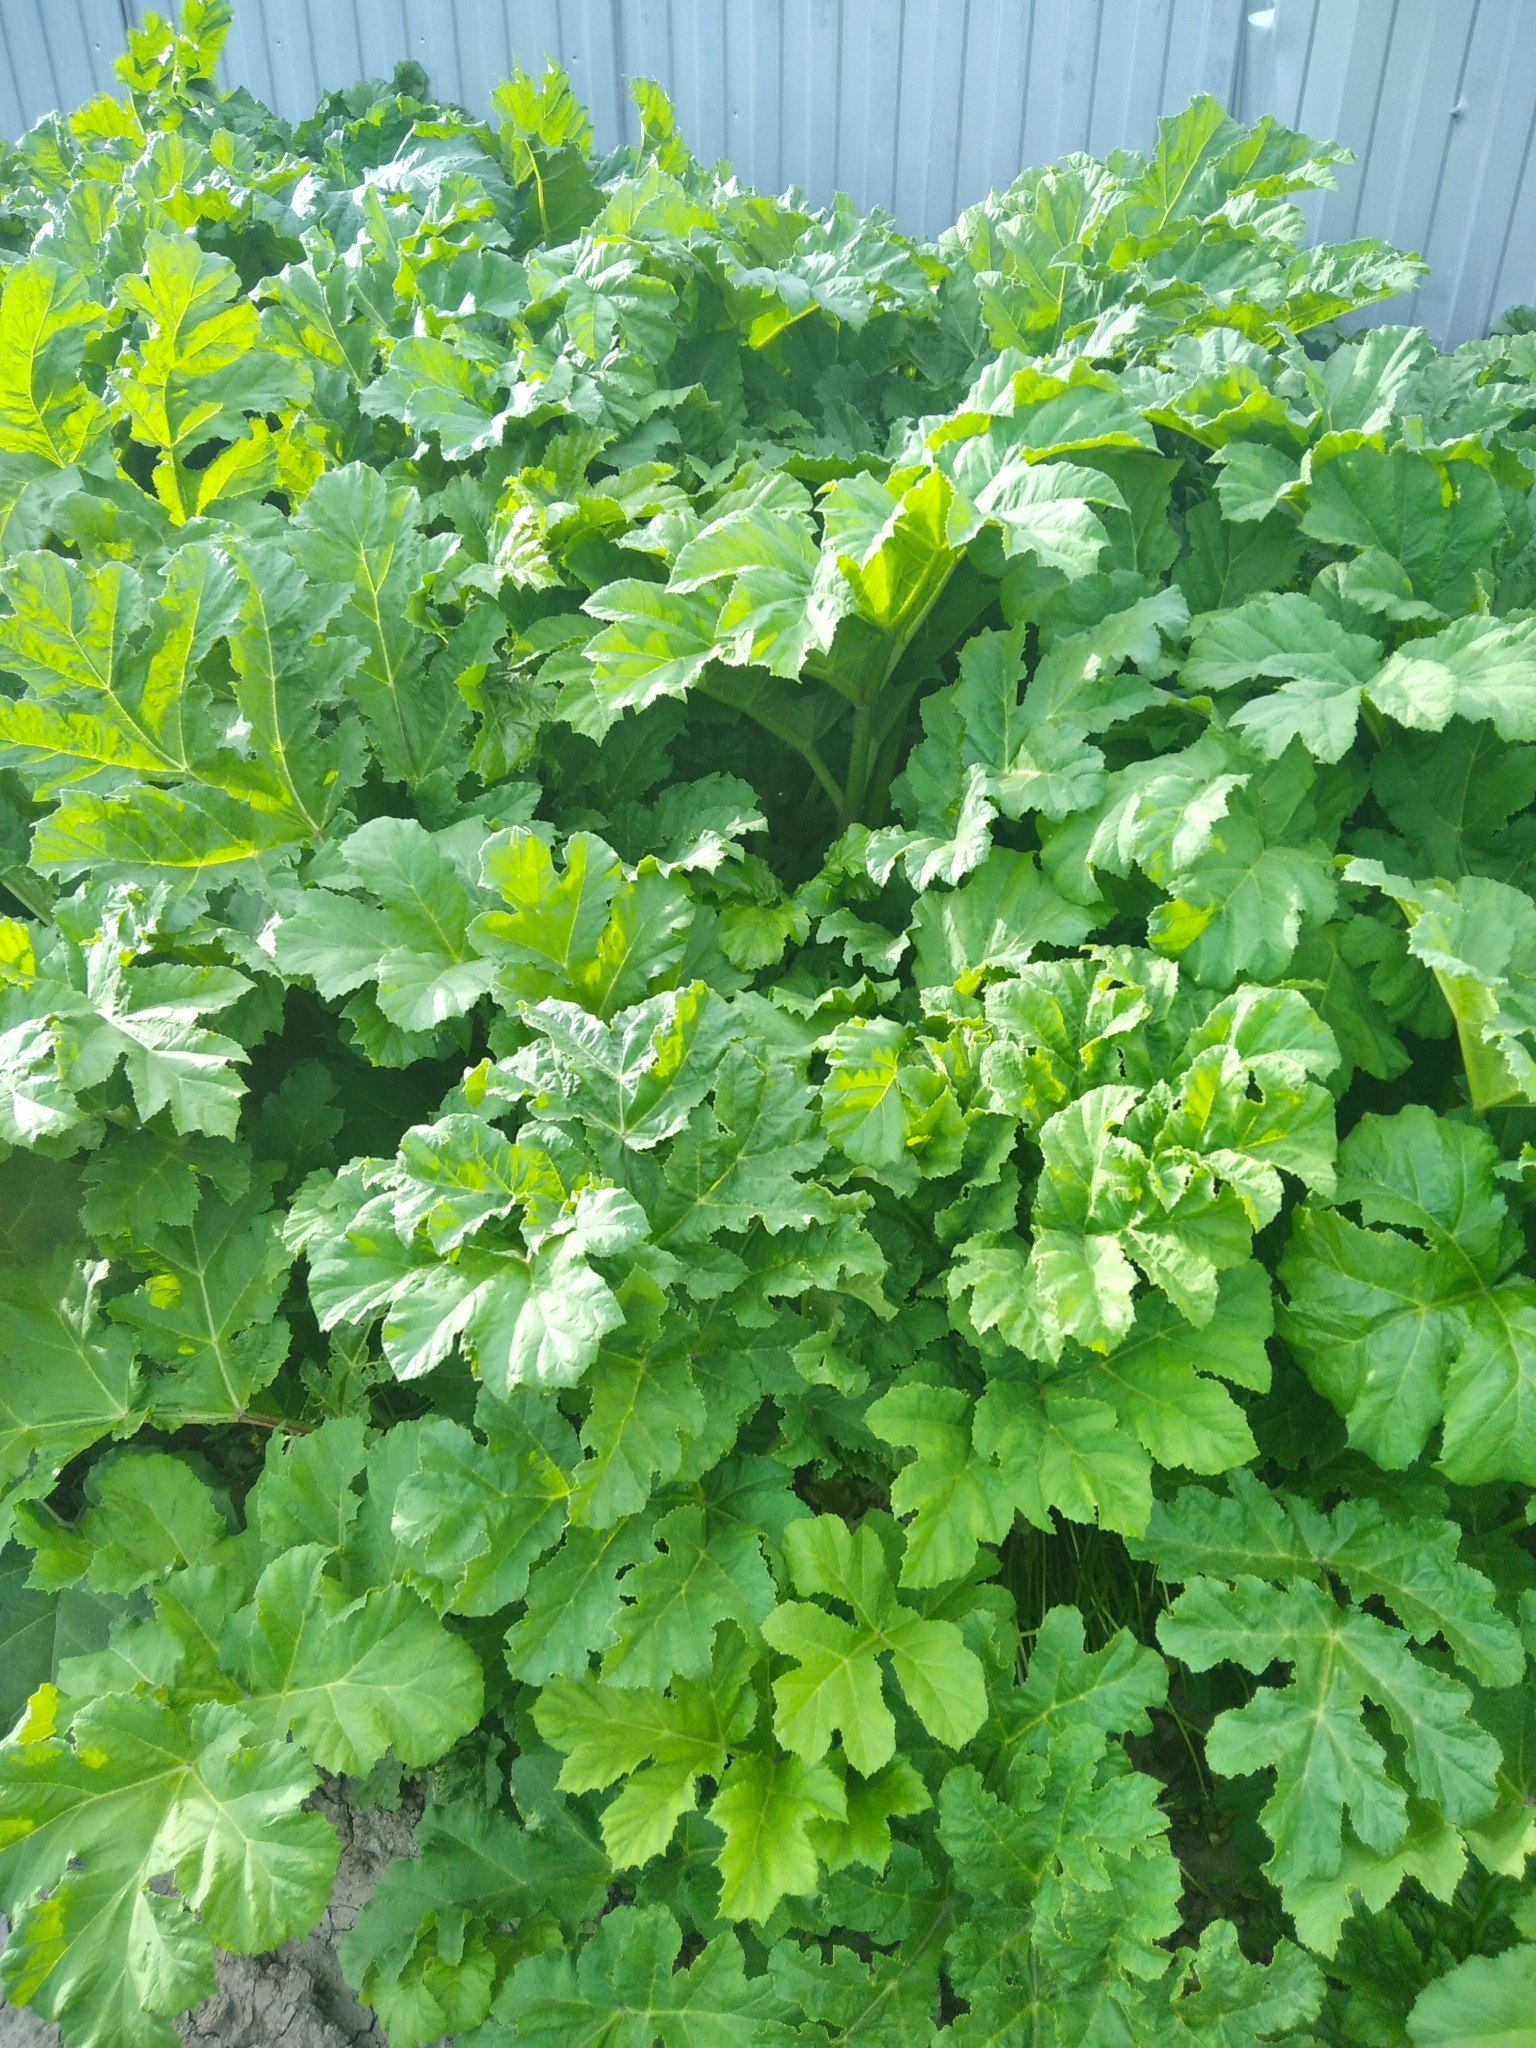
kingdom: Plantae
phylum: Tracheophyta
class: Magnoliopsida
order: Apiales
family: Apiaceae
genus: Heracleum
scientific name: Heracleum sosnowskyi
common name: Sosnowsky's hogweed
